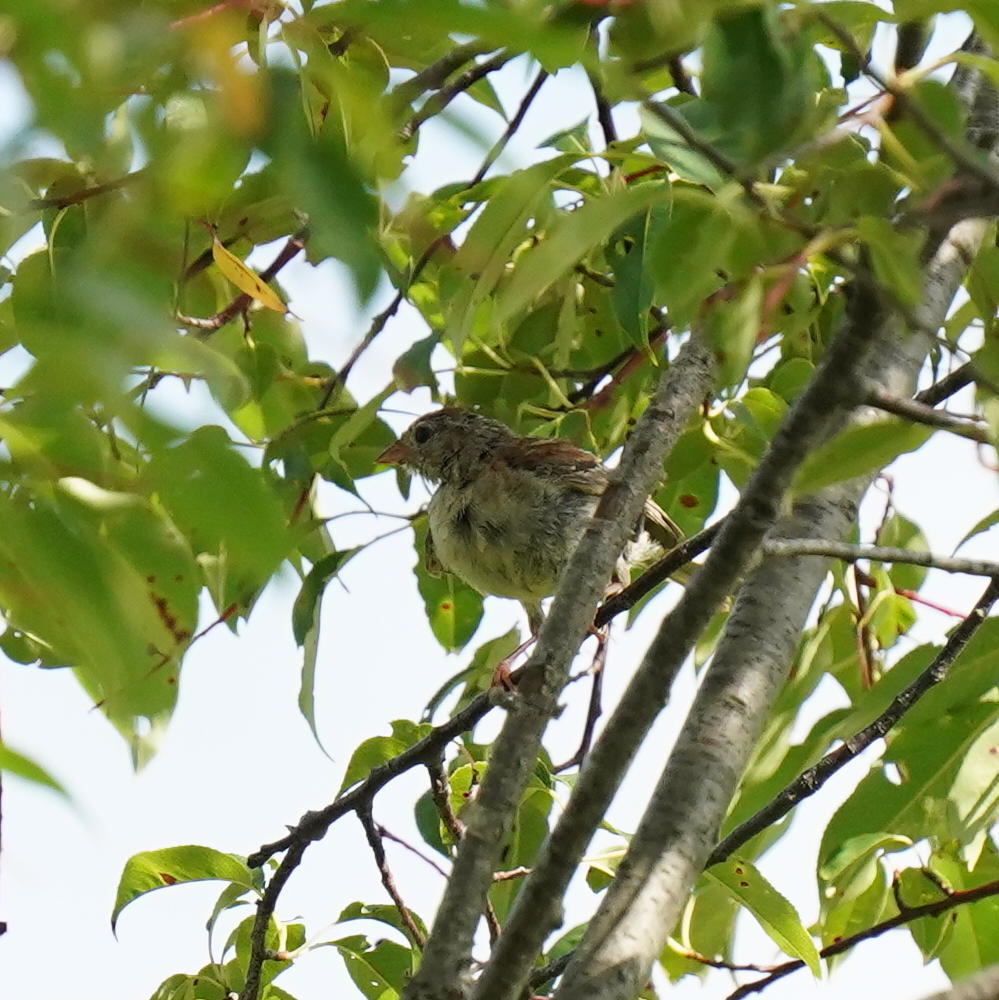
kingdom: Animalia
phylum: Chordata
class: Aves
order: Passeriformes
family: Passerellidae
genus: Spizella
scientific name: Spizella pusilla
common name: Field sparrow
